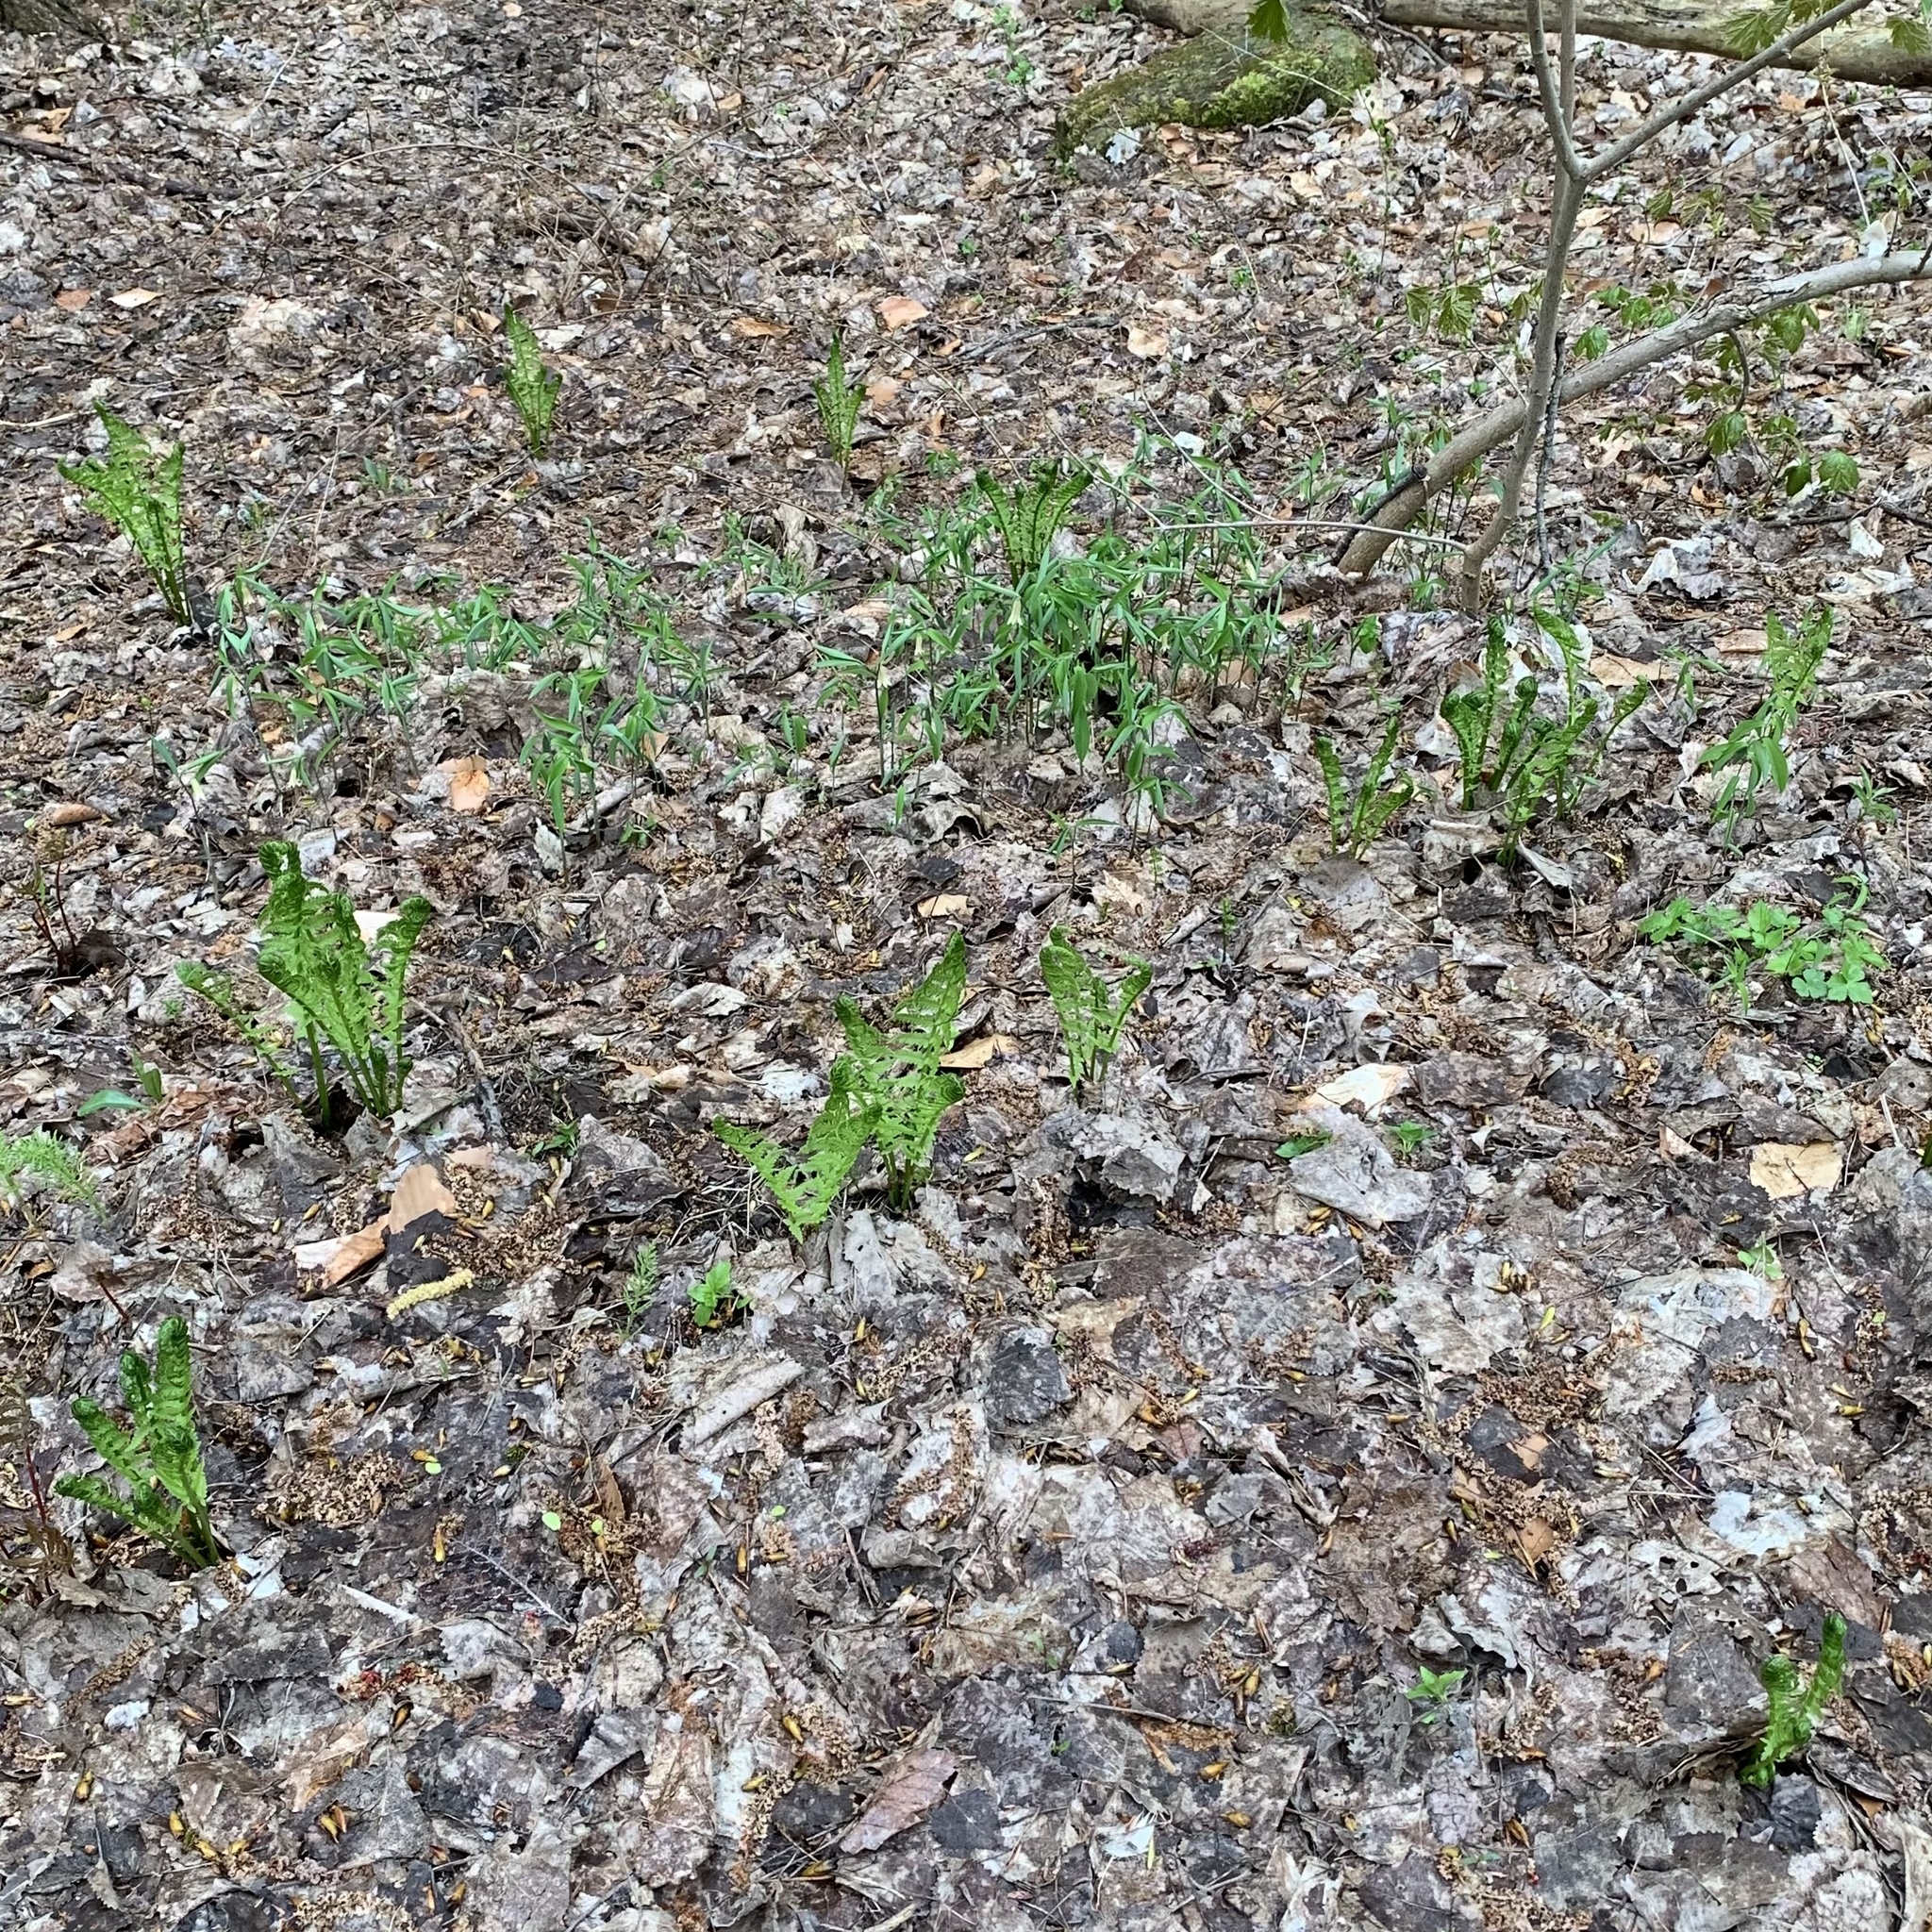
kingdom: Plantae
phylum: Tracheophyta
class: Liliopsida
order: Liliales
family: Colchicaceae
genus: Uvularia
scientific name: Uvularia sessilifolia
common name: Straw-lily
